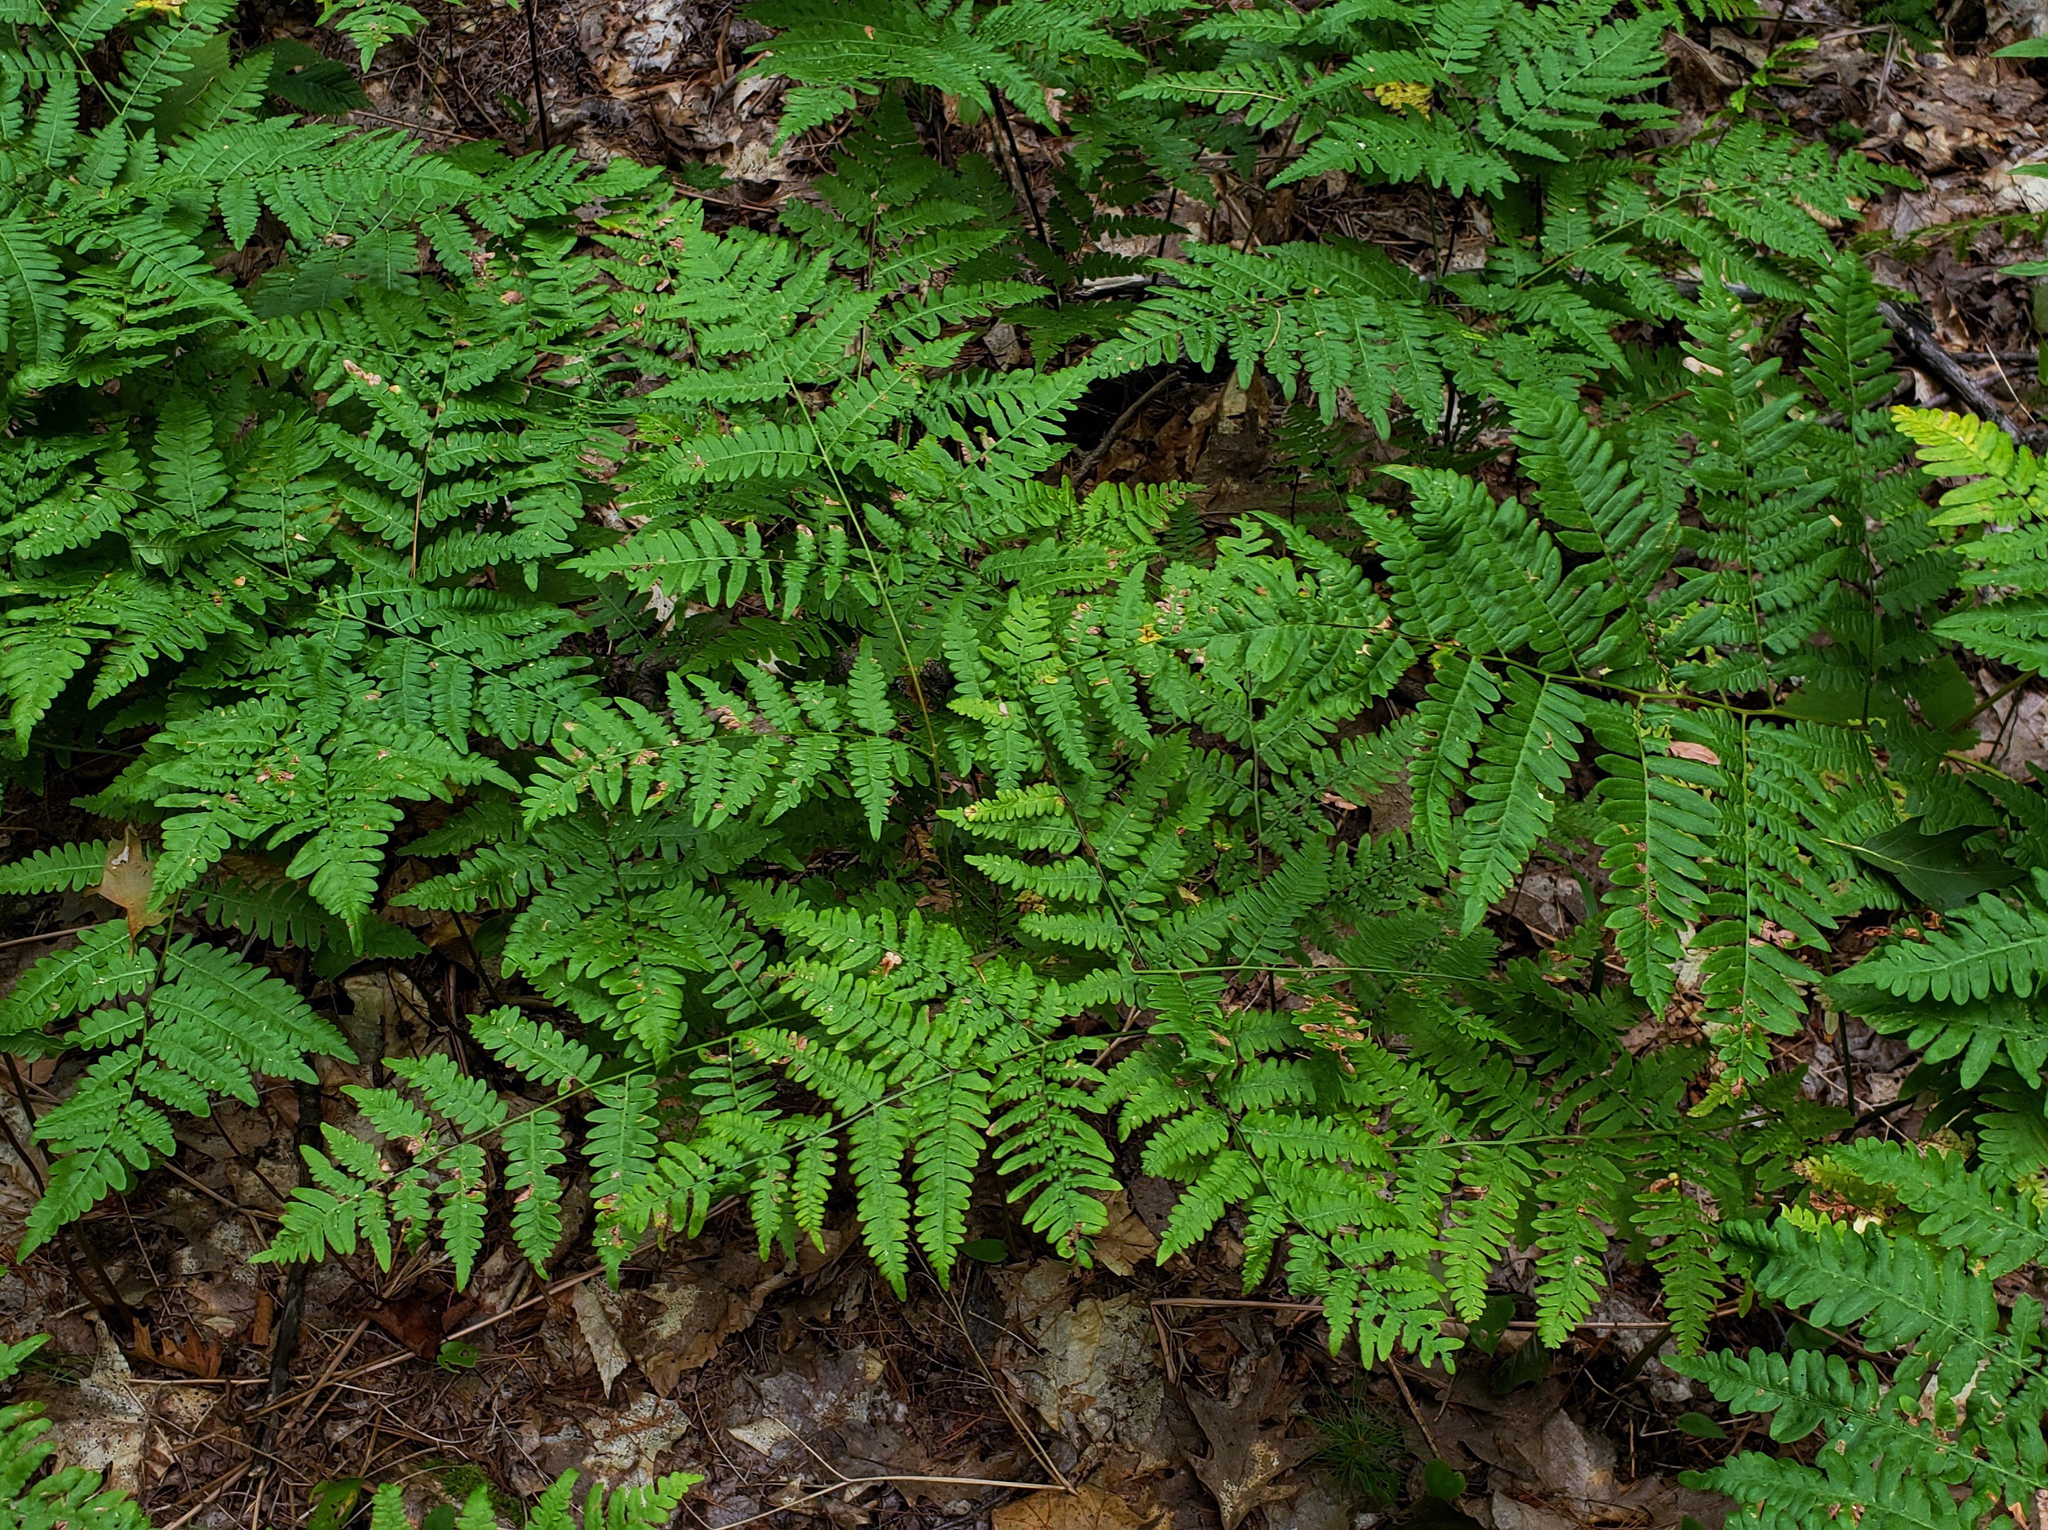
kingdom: Plantae
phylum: Tracheophyta
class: Polypodiopsida
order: Polypodiales
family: Dennstaedtiaceae
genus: Pteridium
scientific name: Pteridium aquilinum
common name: Bracken
